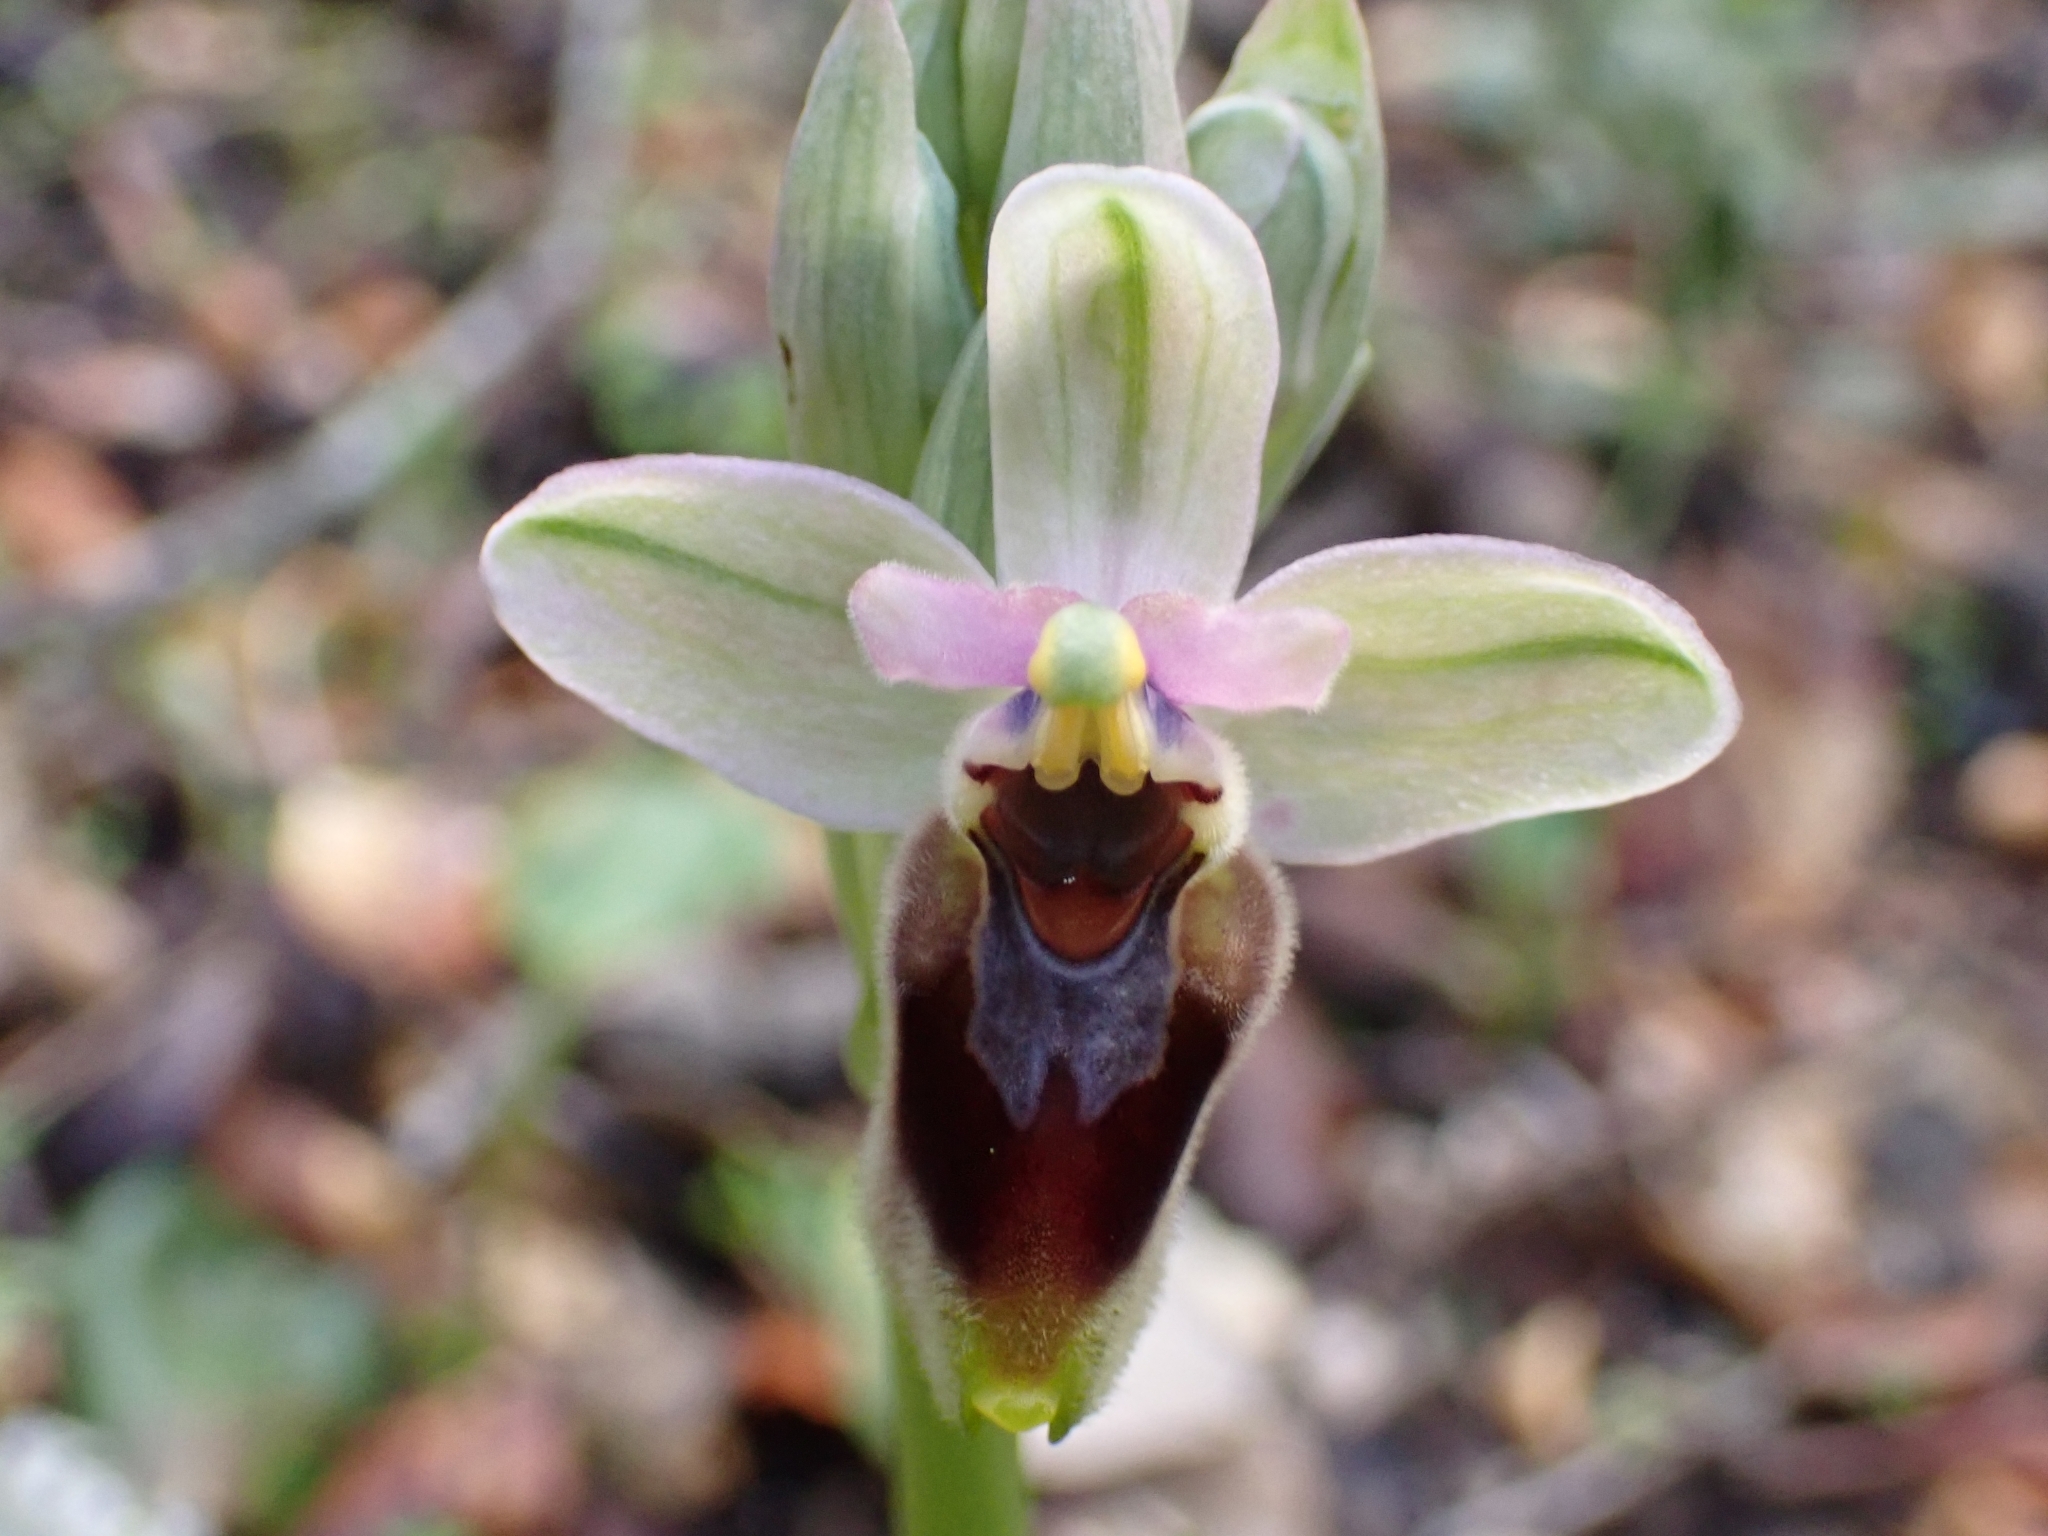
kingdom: Plantae
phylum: Tracheophyta
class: Liliopsida
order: Asparagales
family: Orchidaceae
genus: Ophrys
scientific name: Ophrys tenthredinifera
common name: Sawfly orchid
